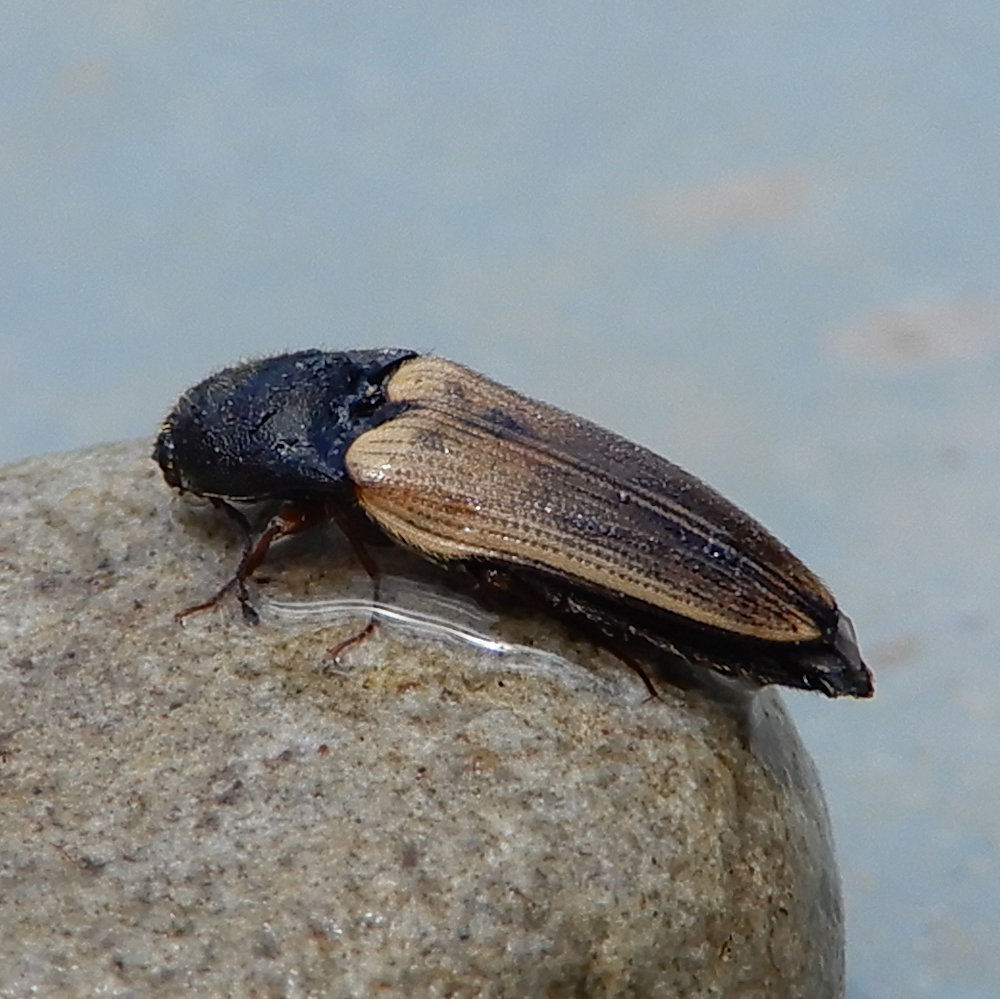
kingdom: Animalia
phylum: Arthropoda
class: Insecta
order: Coleoptera
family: Elateridae
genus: Ampedus
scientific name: Ampedus nigricollis
